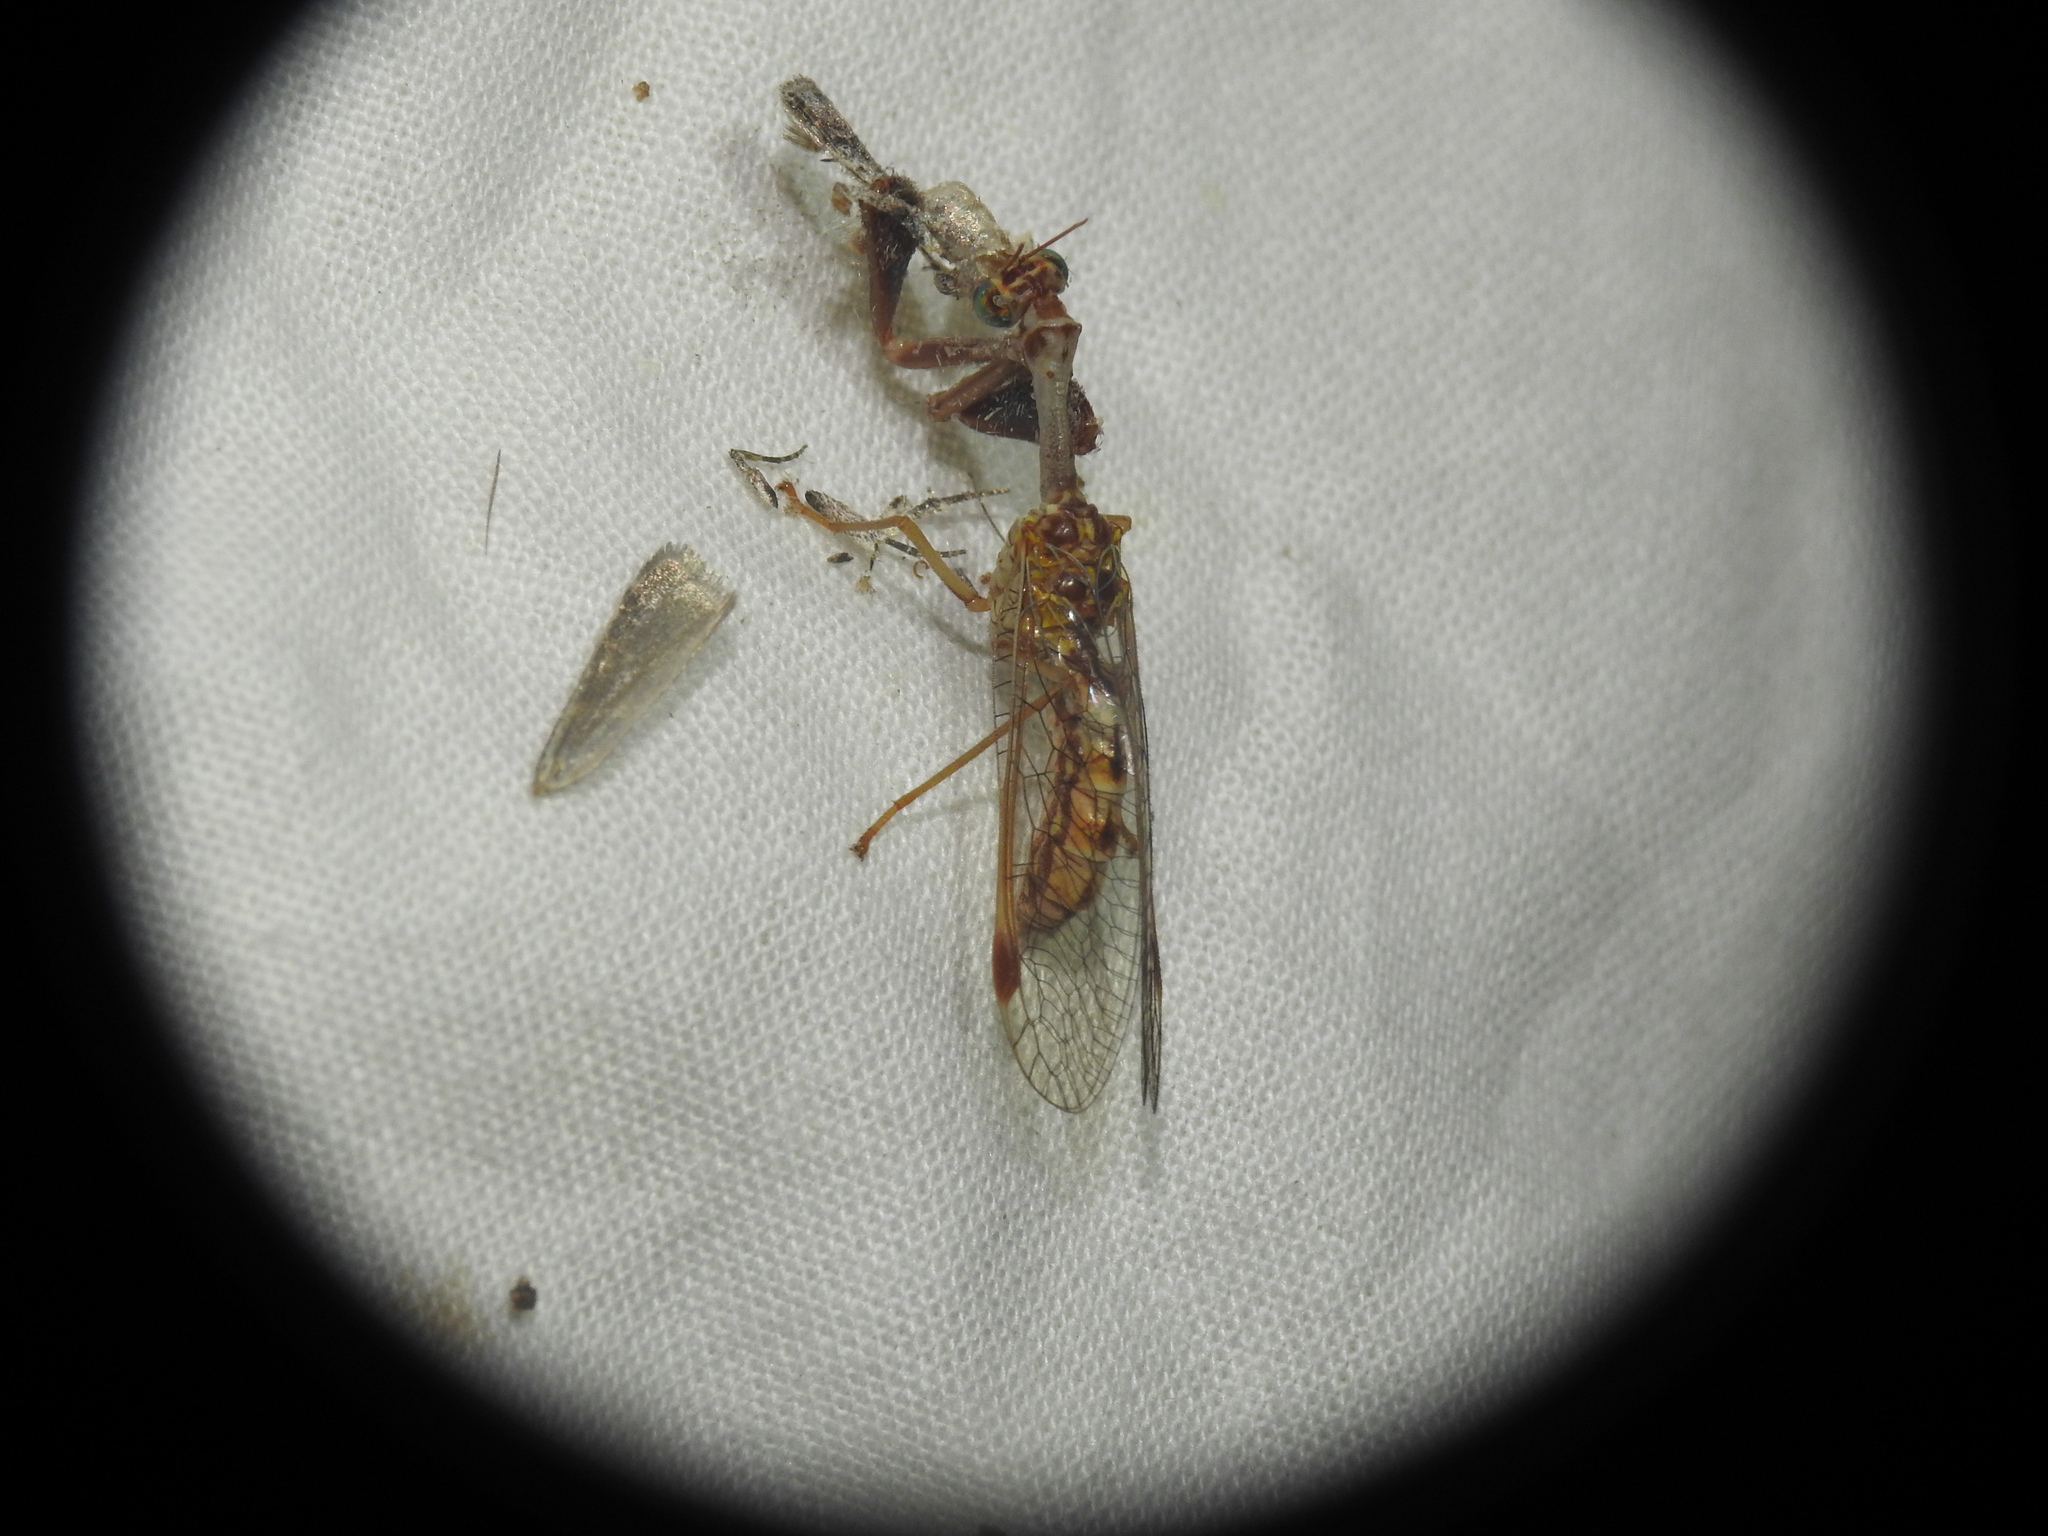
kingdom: Animalia
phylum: Arthropoda
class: Insecta
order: Neuroptera
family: Mantispidae
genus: Mantispa
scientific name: Mantispa styriaca
